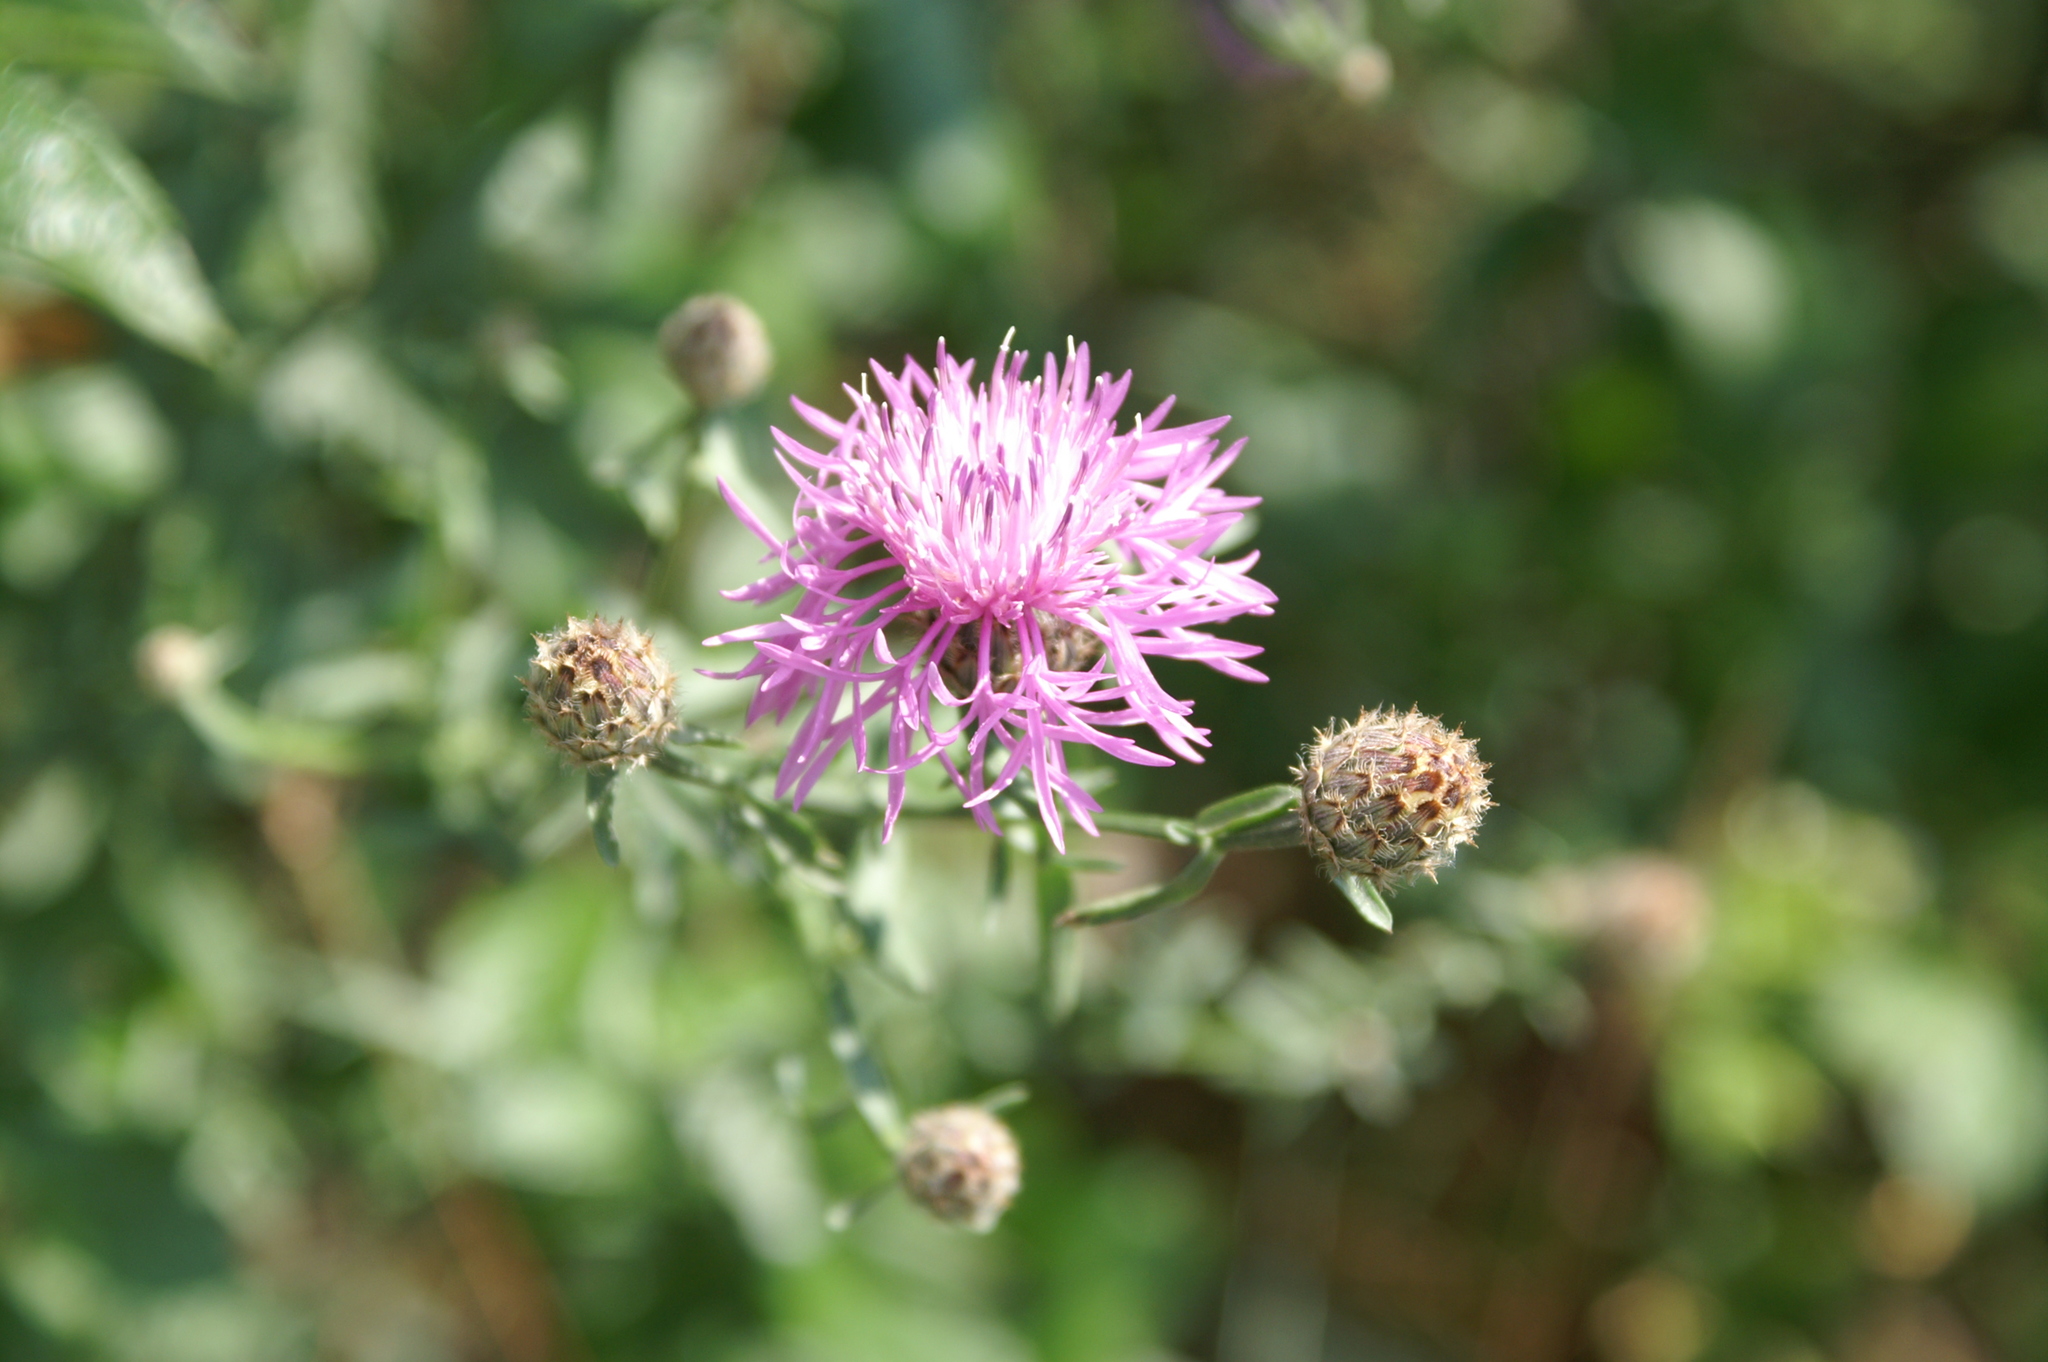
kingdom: Plantae
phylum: Tracheophyta
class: Magnoliopsida
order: Asterales
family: Asteraceae
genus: Centaurea
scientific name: Centaurea stoebe
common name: Spotted knapweed
